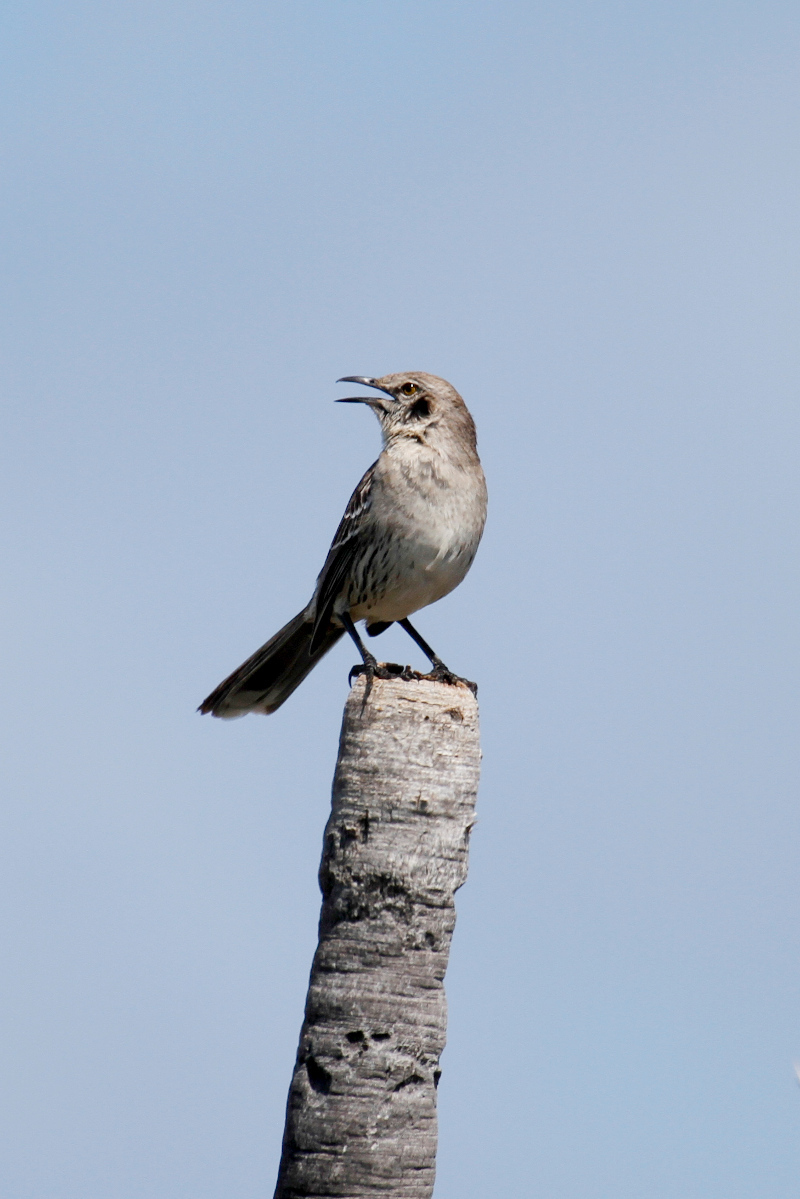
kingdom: Animalia
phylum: Chordata
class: Aves
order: Passeriformes
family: Mimidae
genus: Mimus
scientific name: Mimus gundlachii
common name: Bahama mockingbird
